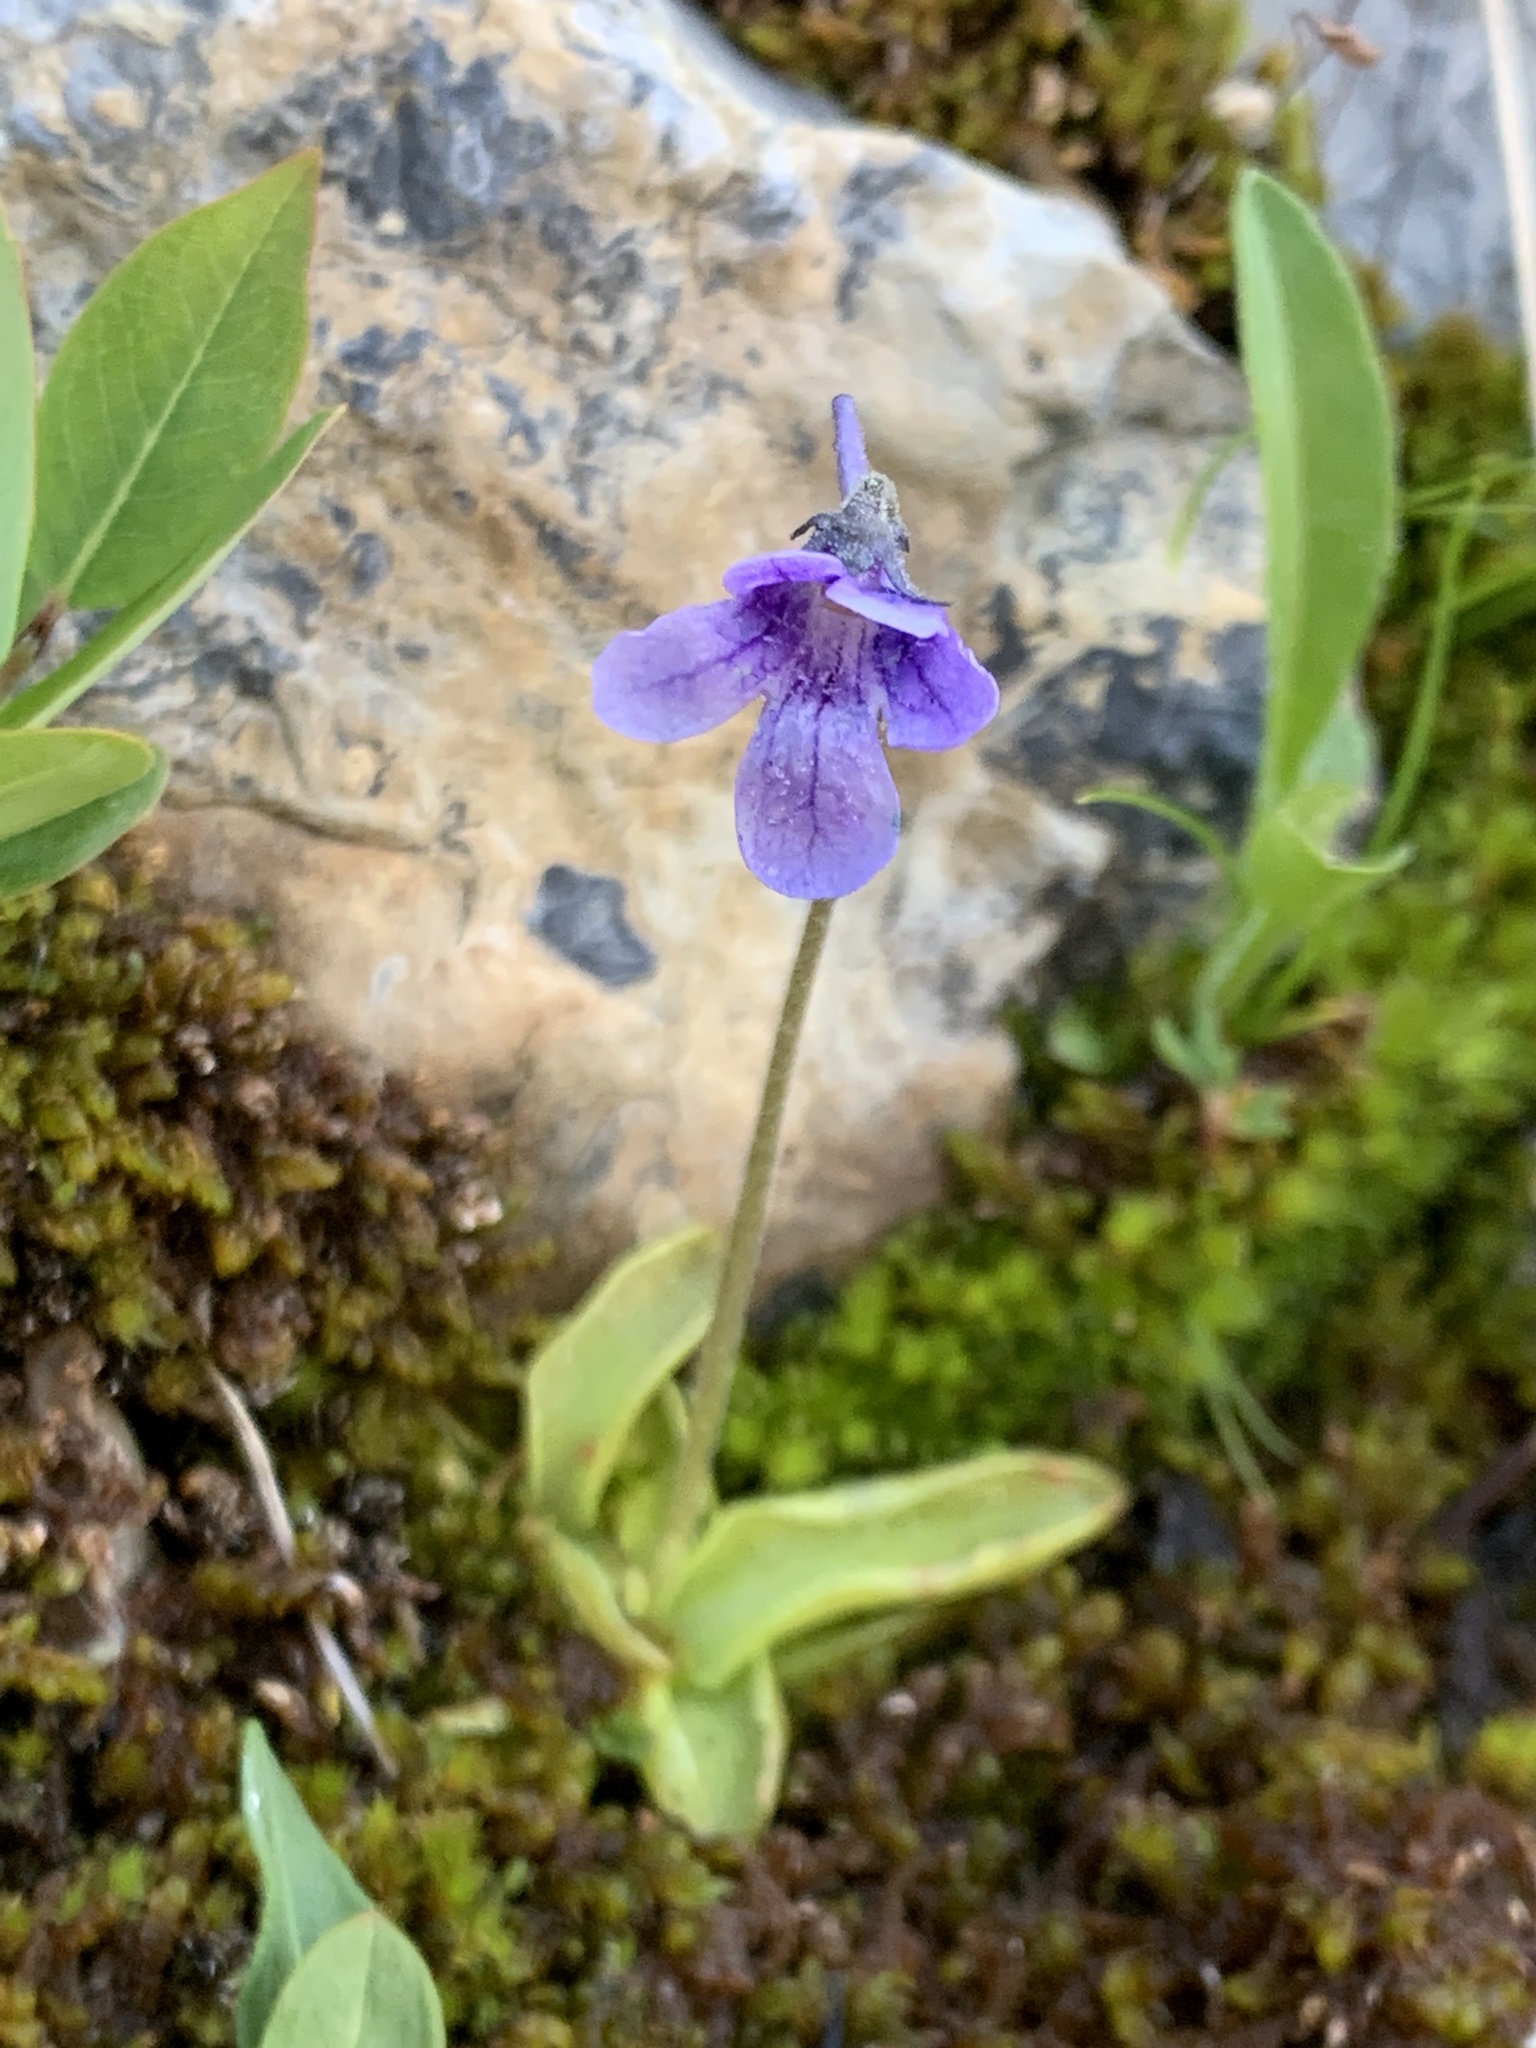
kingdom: Plantae
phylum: Tracheophyta
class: Magnoliopsida
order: Lamiales
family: Lentibulariaceae
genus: Pinguicula
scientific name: Pinguicula vulgaris
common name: Common butterwort
